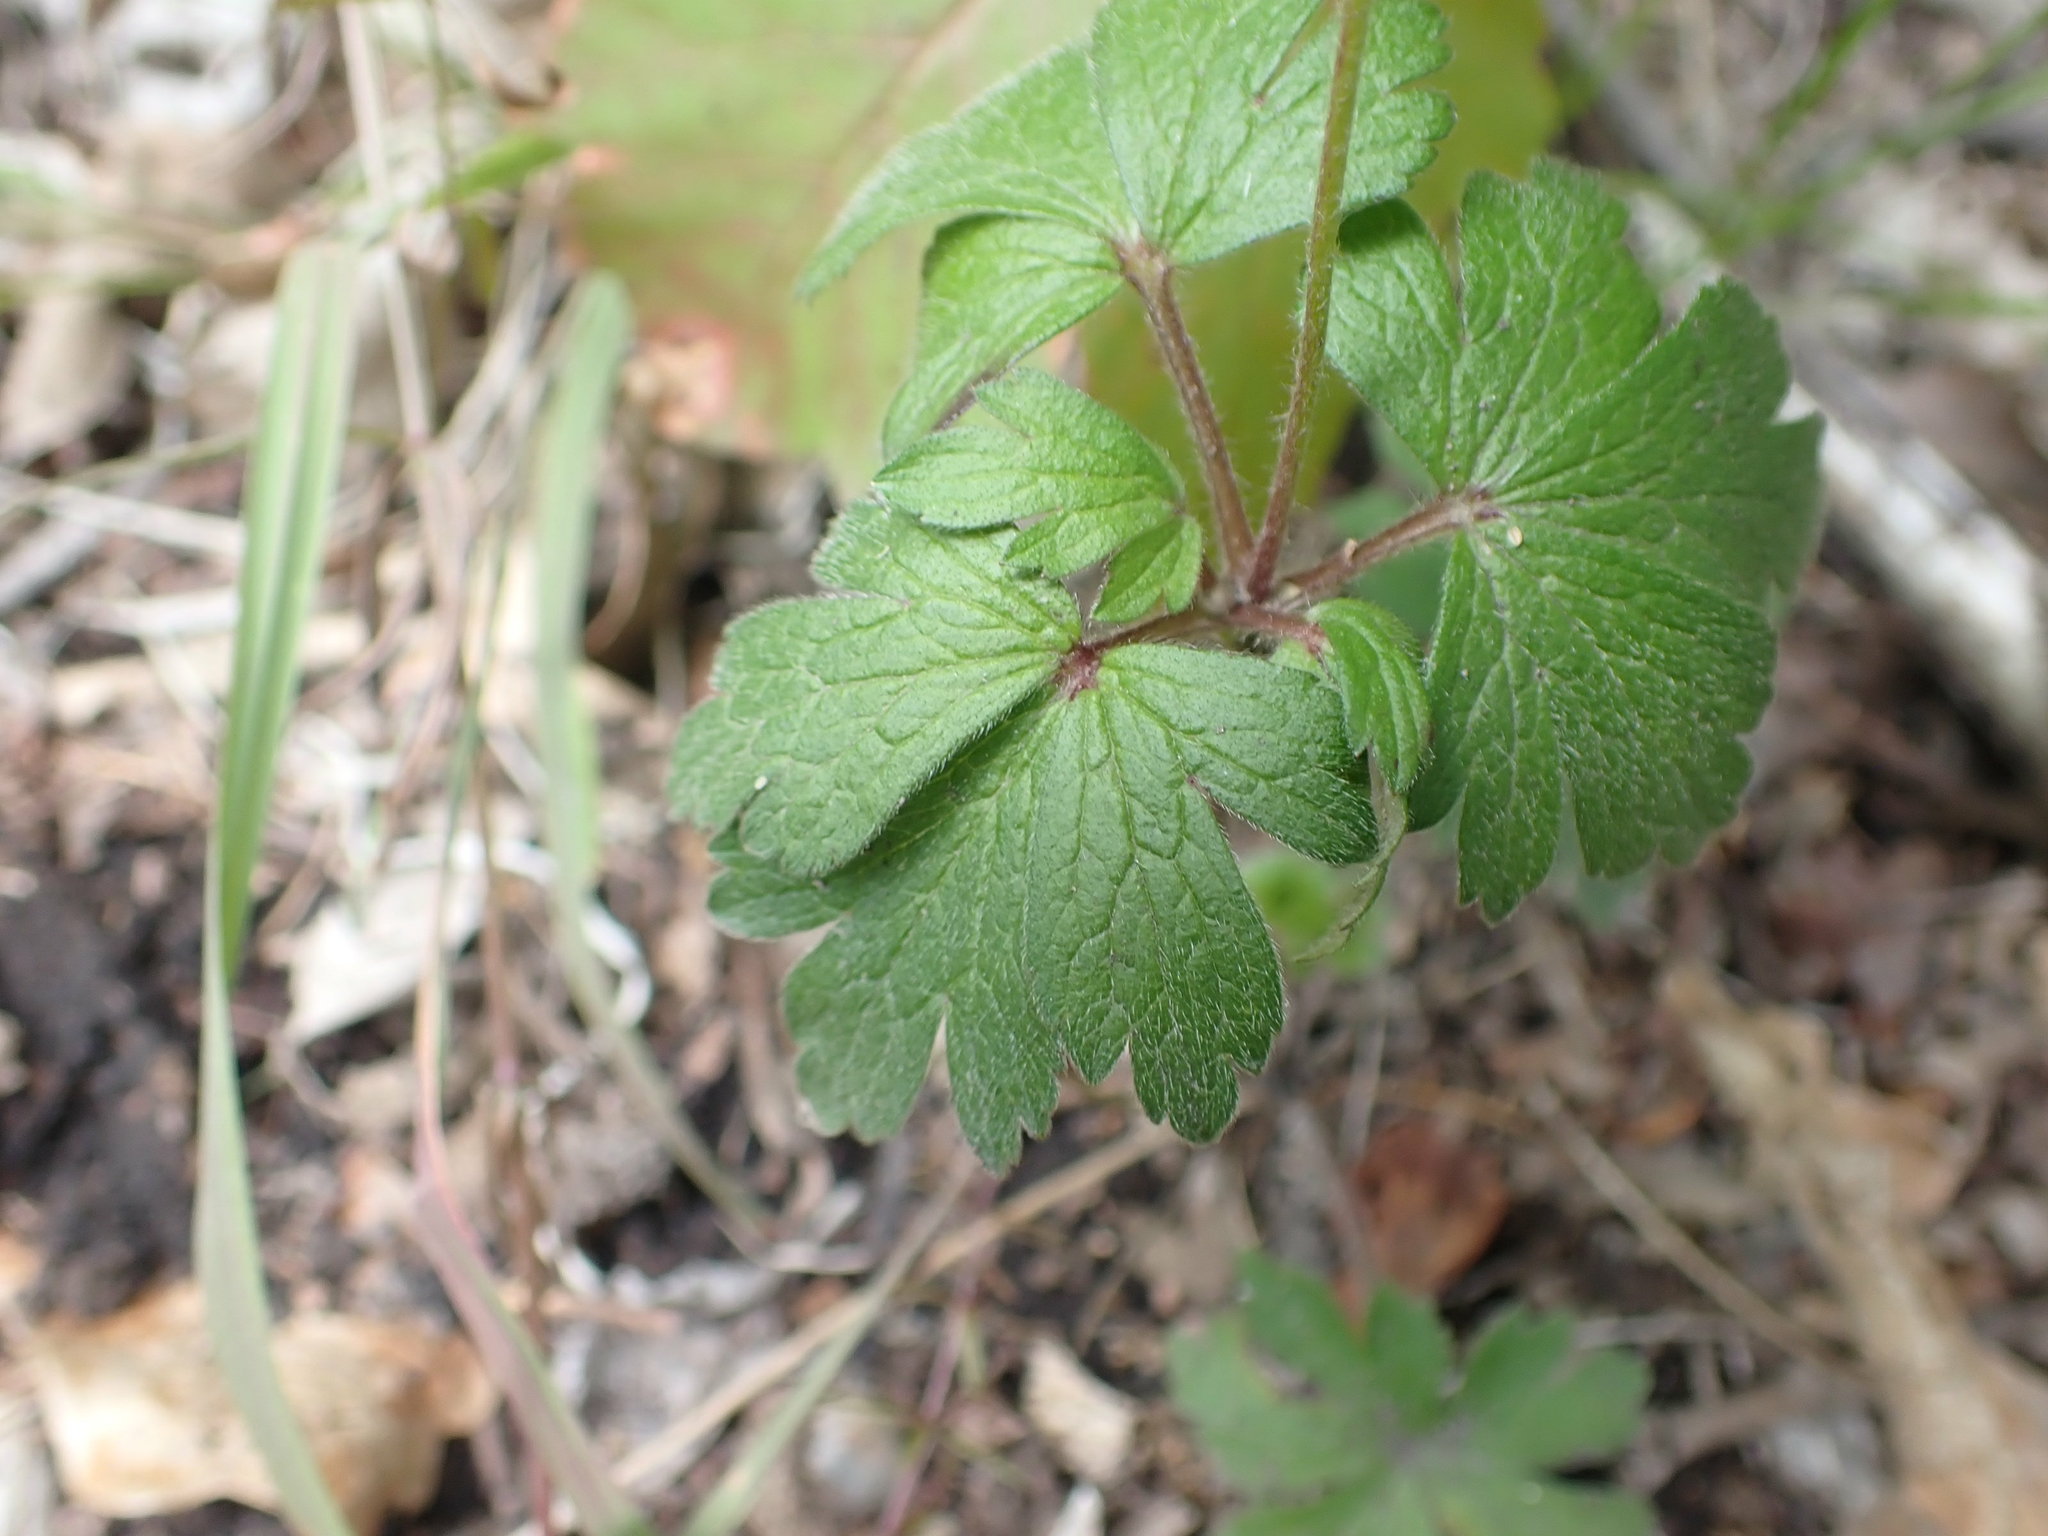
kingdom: Plantae
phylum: Tracheophyta
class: Magnoliopsida
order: Ranunculales
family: Ranunculaceae
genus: Anemone
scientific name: Anemone virginiana
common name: Tall anemone
